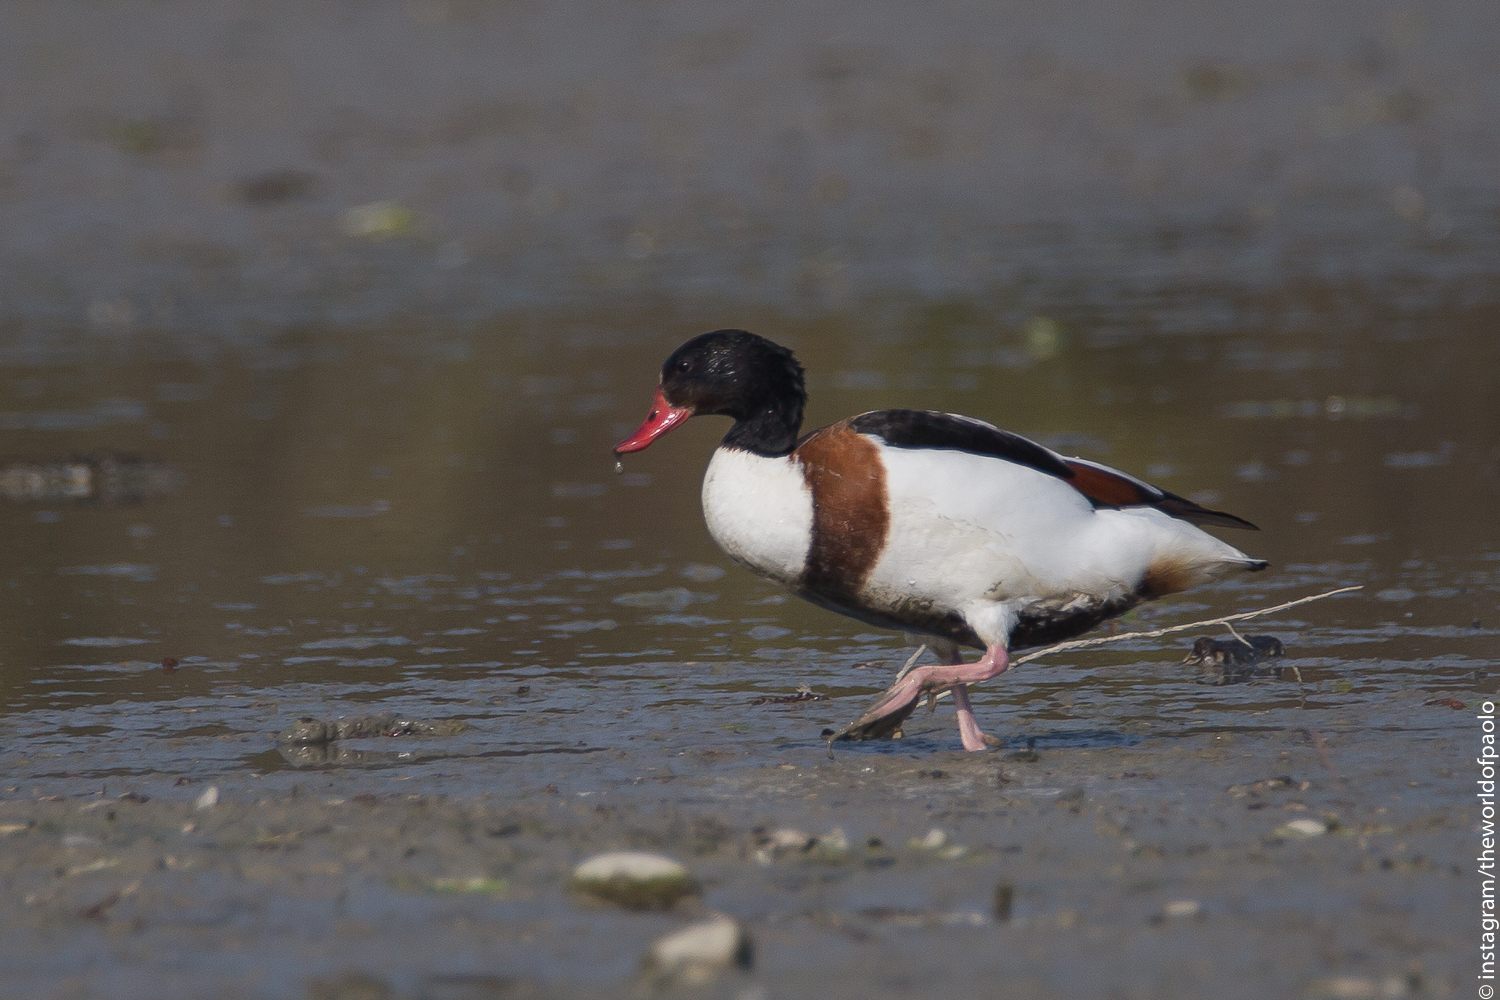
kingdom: Animalia
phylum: Chordata
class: Aves
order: Anseriformes
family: Anatidae
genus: Tadorna
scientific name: Tadorna tadorna
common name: Common shelduck
